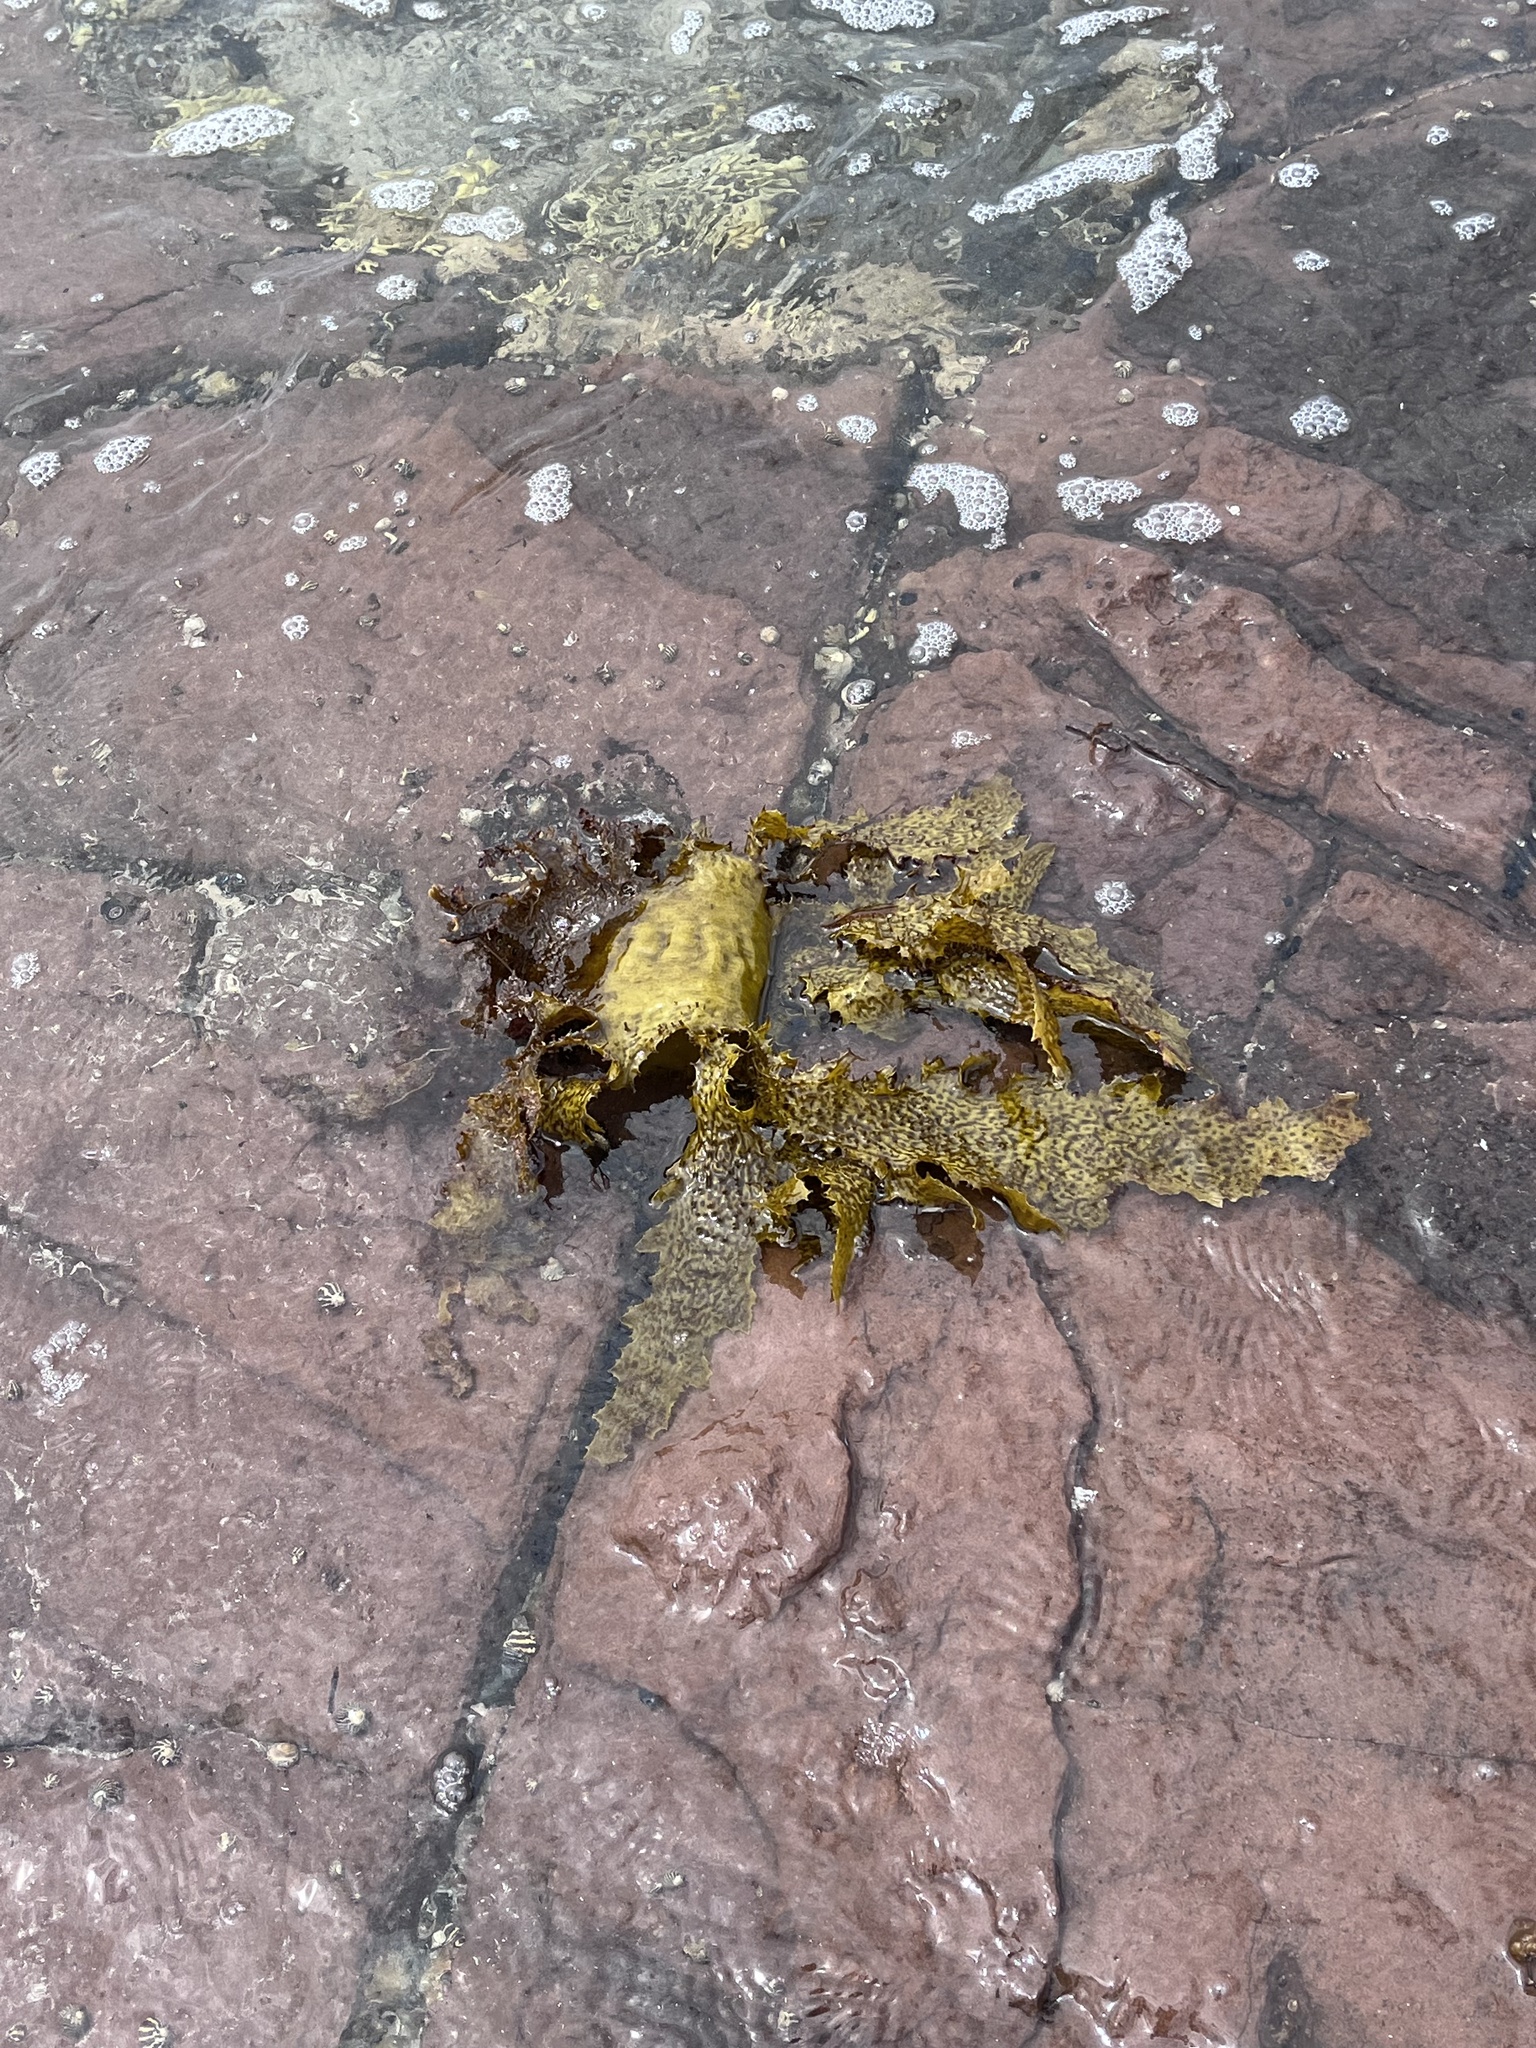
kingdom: Chromista
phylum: Ochrophyta
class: Phaeophyceae
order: Laminariales
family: Lessoniaceae
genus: Ecklonia
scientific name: Ecklonia radiata
